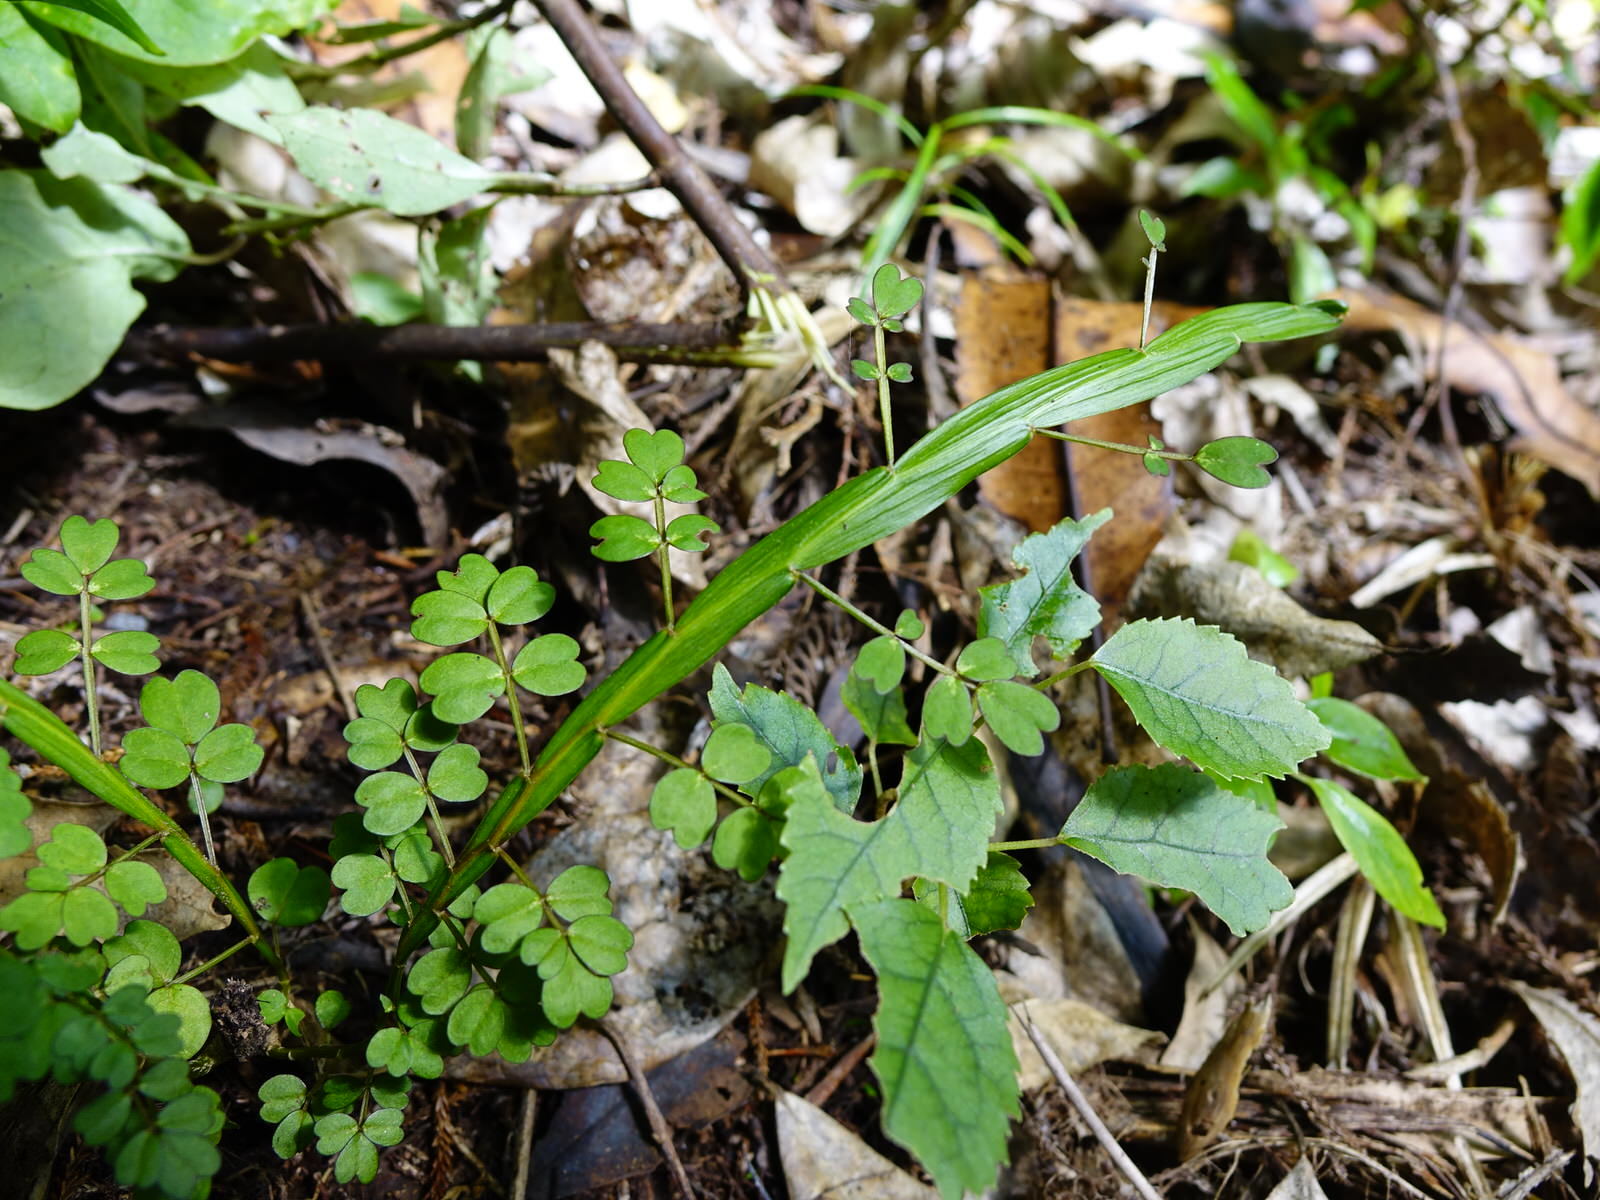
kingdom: Plantae
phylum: Tracheophyta
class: Magnoliopsida
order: Fabales
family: Fabaceae
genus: Carmichaelia
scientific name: Carmichaelia australis
